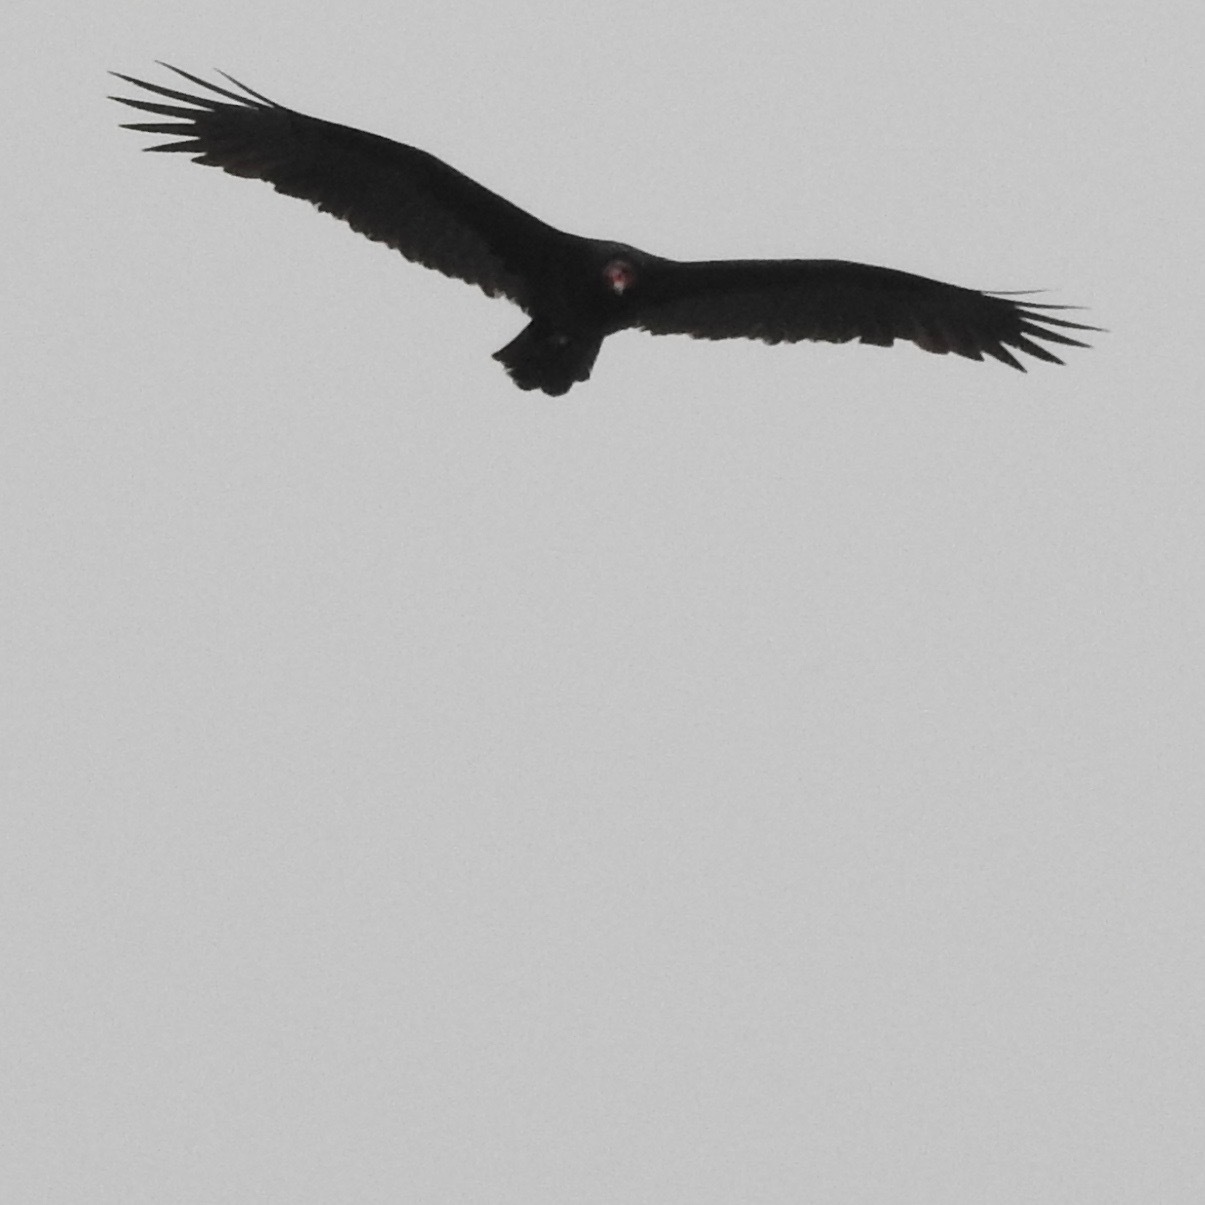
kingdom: Animalia
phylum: Chordata
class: Aves
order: Accipitriformes
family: Cathartidae
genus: Cathartes
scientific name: Cathartes aura
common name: Turkey vulture
